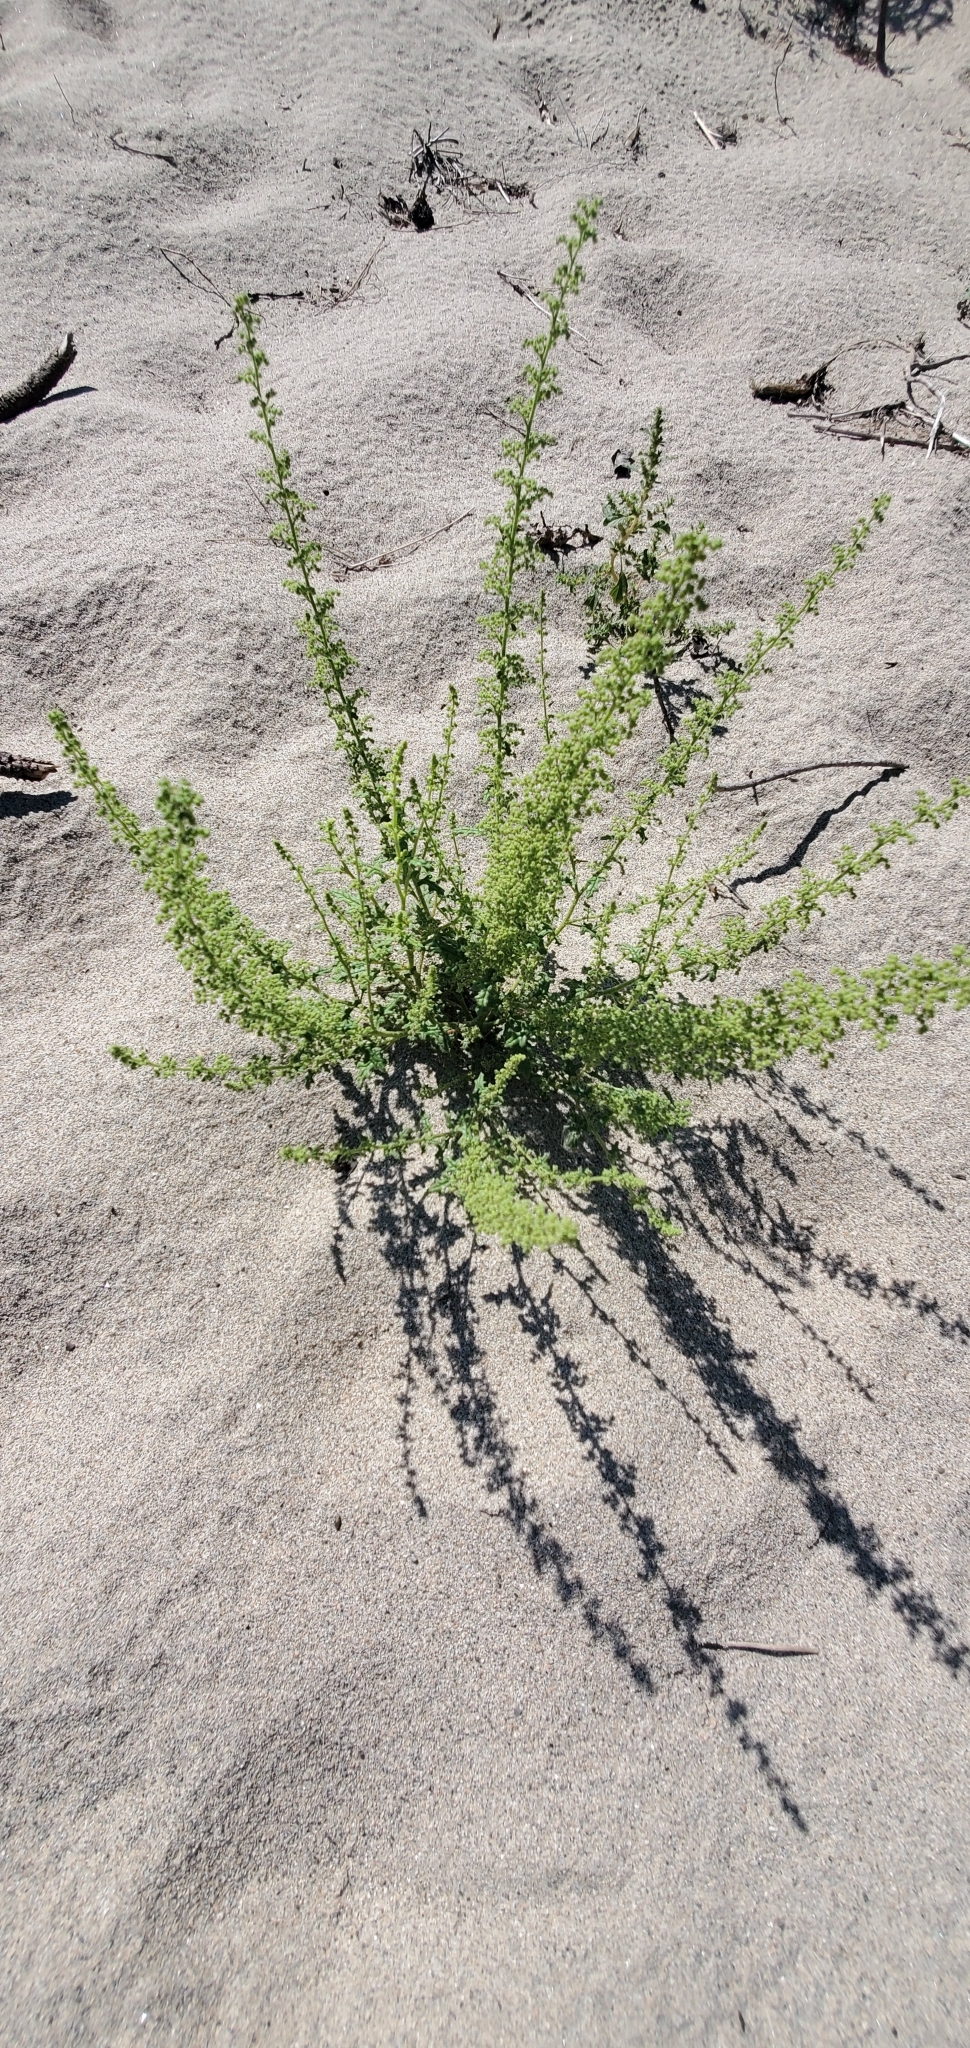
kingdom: Plantae
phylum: Tracheophyta
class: Magnoliopsida
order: Caryophyllales
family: Amaranthaceae
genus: Dysphania
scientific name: Dysphania botrys
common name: Feather-geranium
